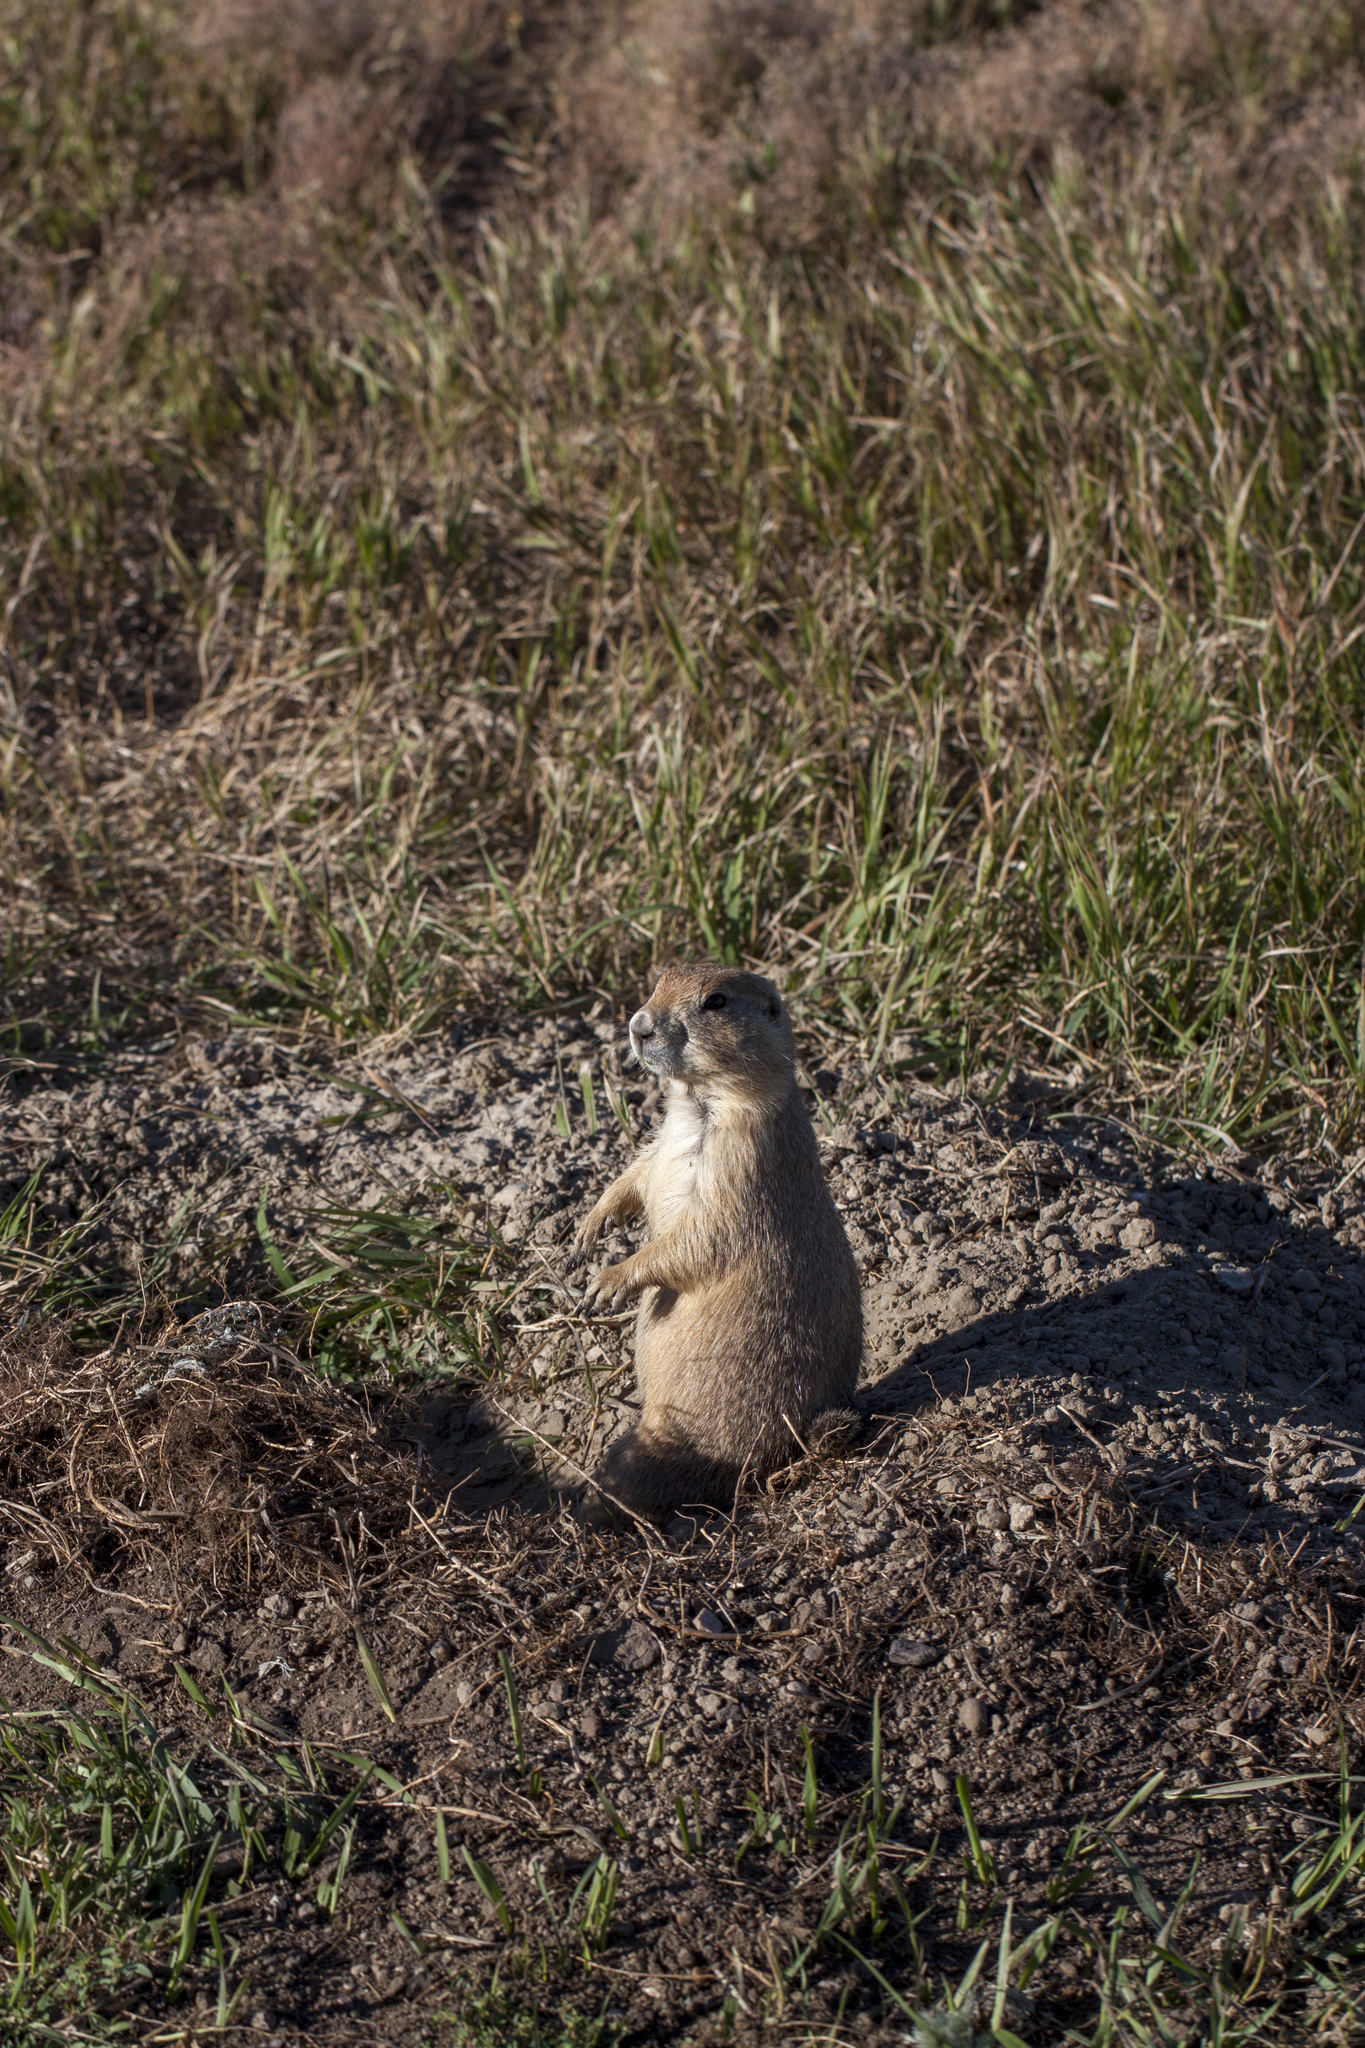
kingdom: Animalia
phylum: Chordata
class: Mammalia
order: Rodentia
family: Sciuridae
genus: Cynomys
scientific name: Cynomys ludovicianus
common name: Black-tailed prairie dog
